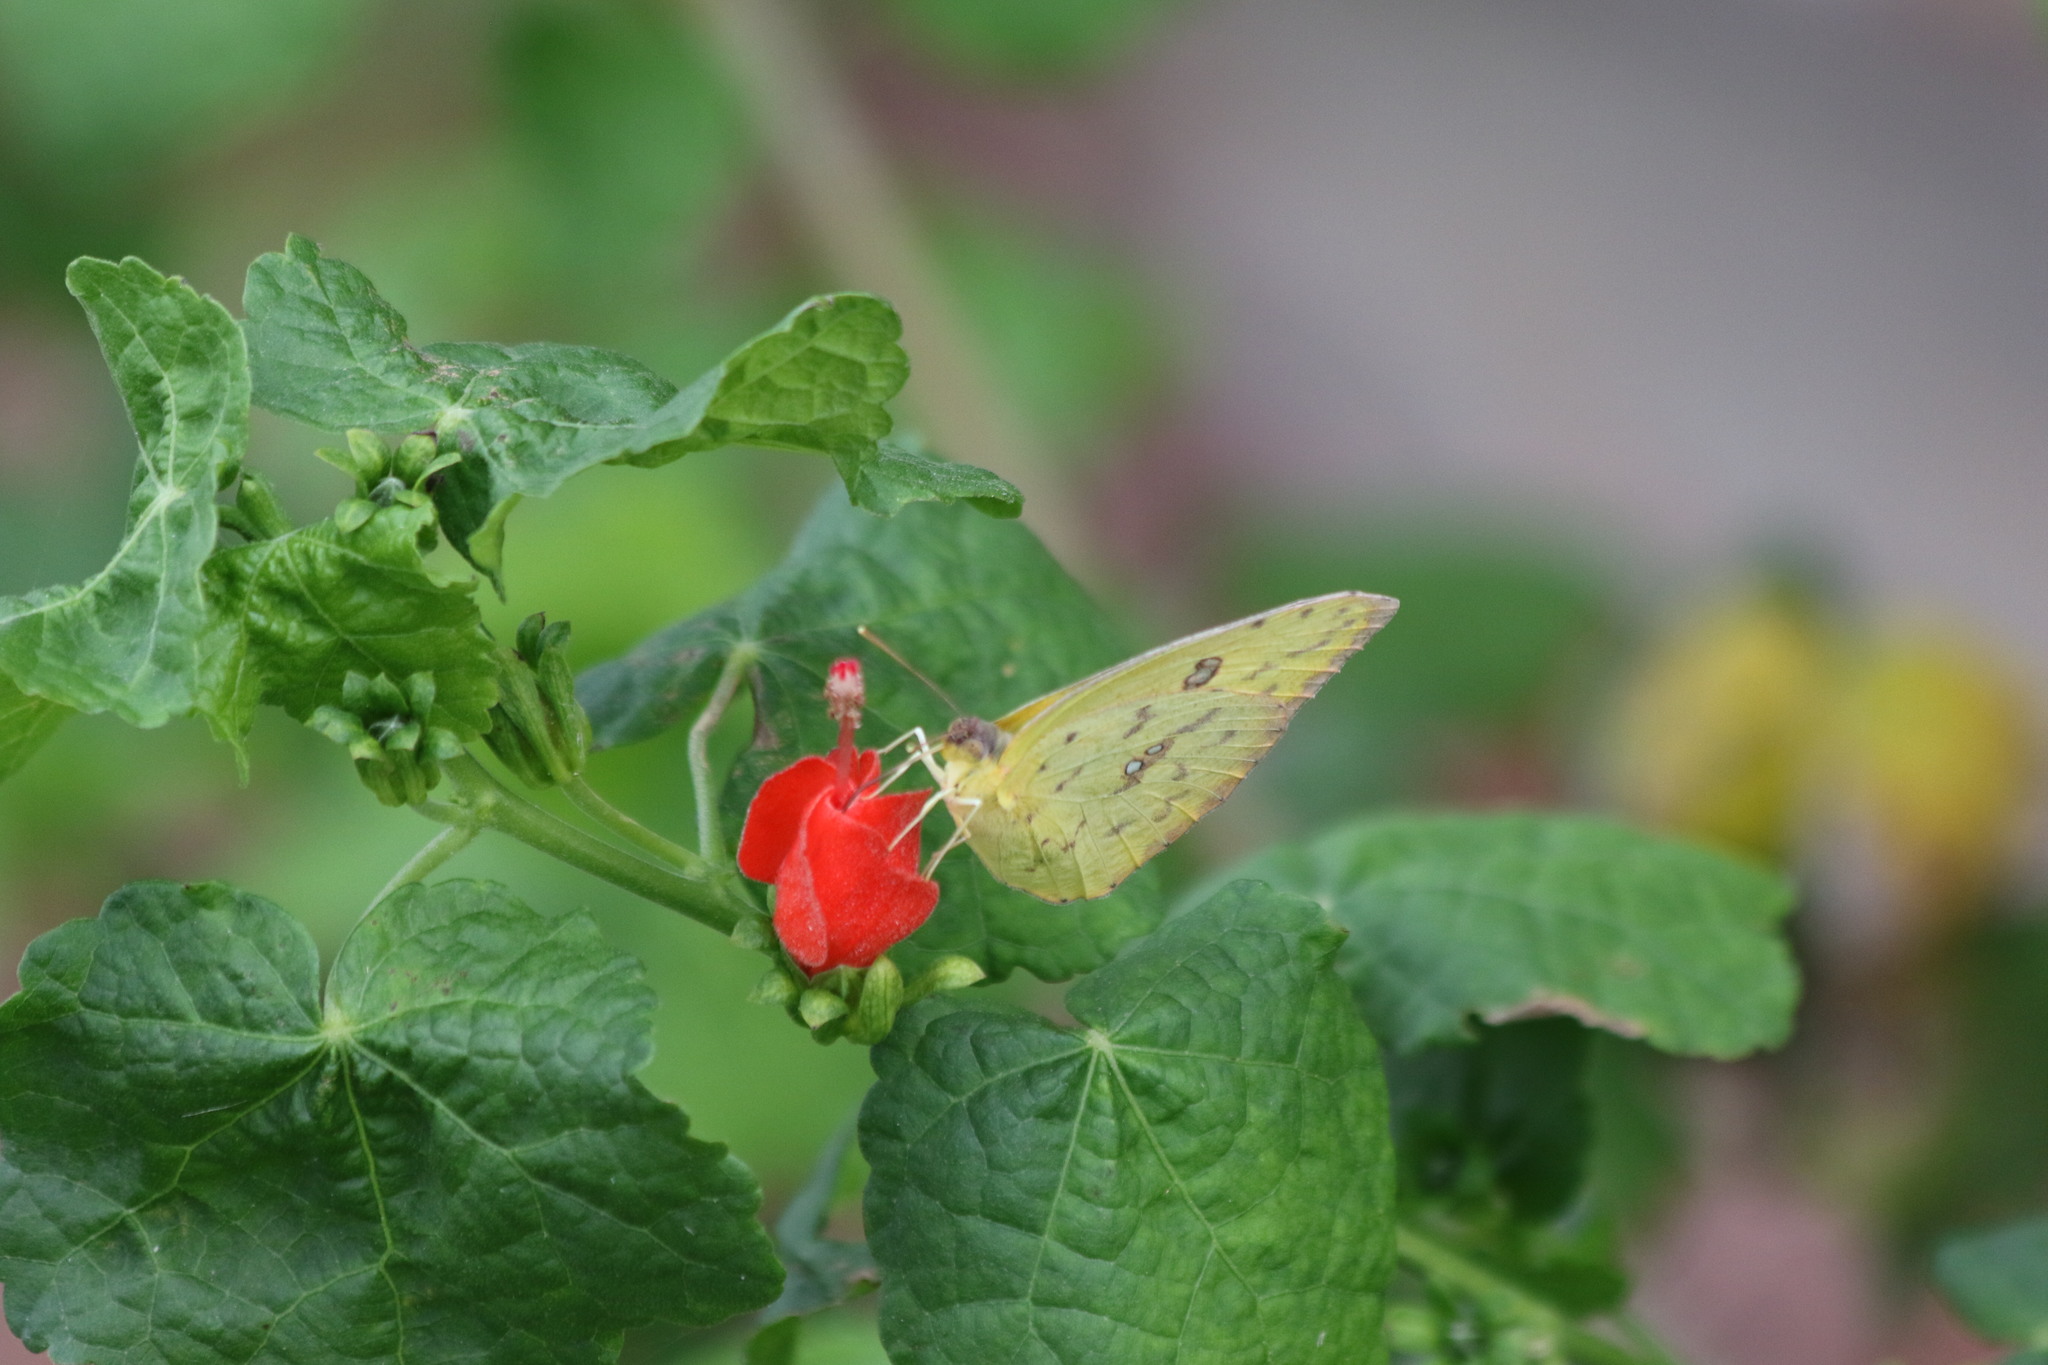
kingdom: Animalia
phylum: Arthropoda
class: Insecta
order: Lepidoptera
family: Pieridae
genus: Phoebis
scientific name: Phoebis sennae
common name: Cloudless sulphur
